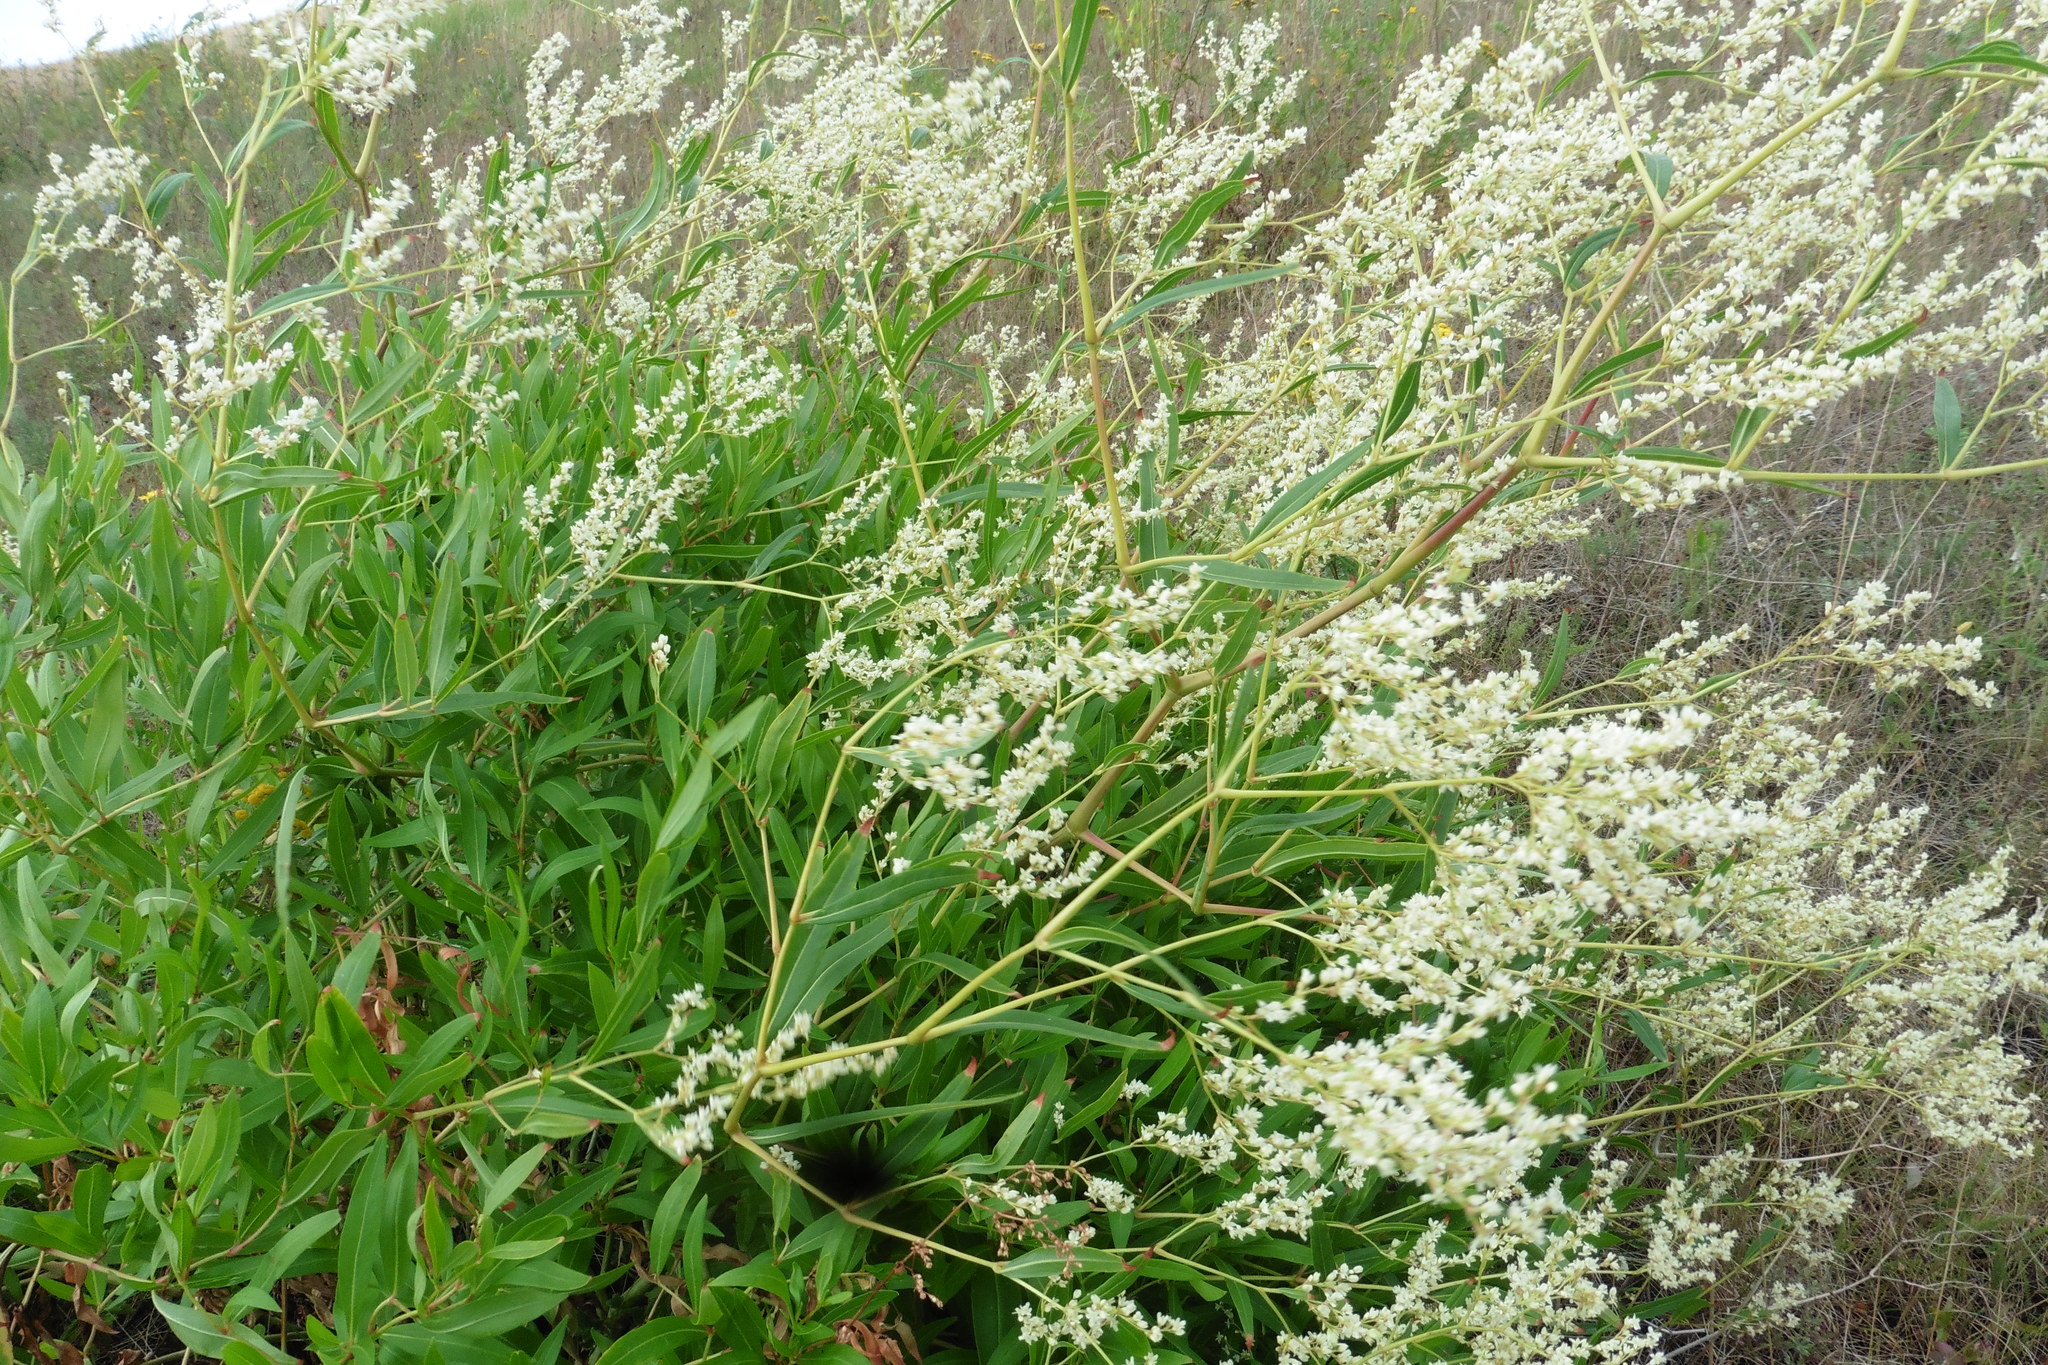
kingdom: Plantae
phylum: Tracheophyta
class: Magnoliopsida
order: Caryophyllales
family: Polygonaceae
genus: Koenigia
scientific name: Koenigia alpina
